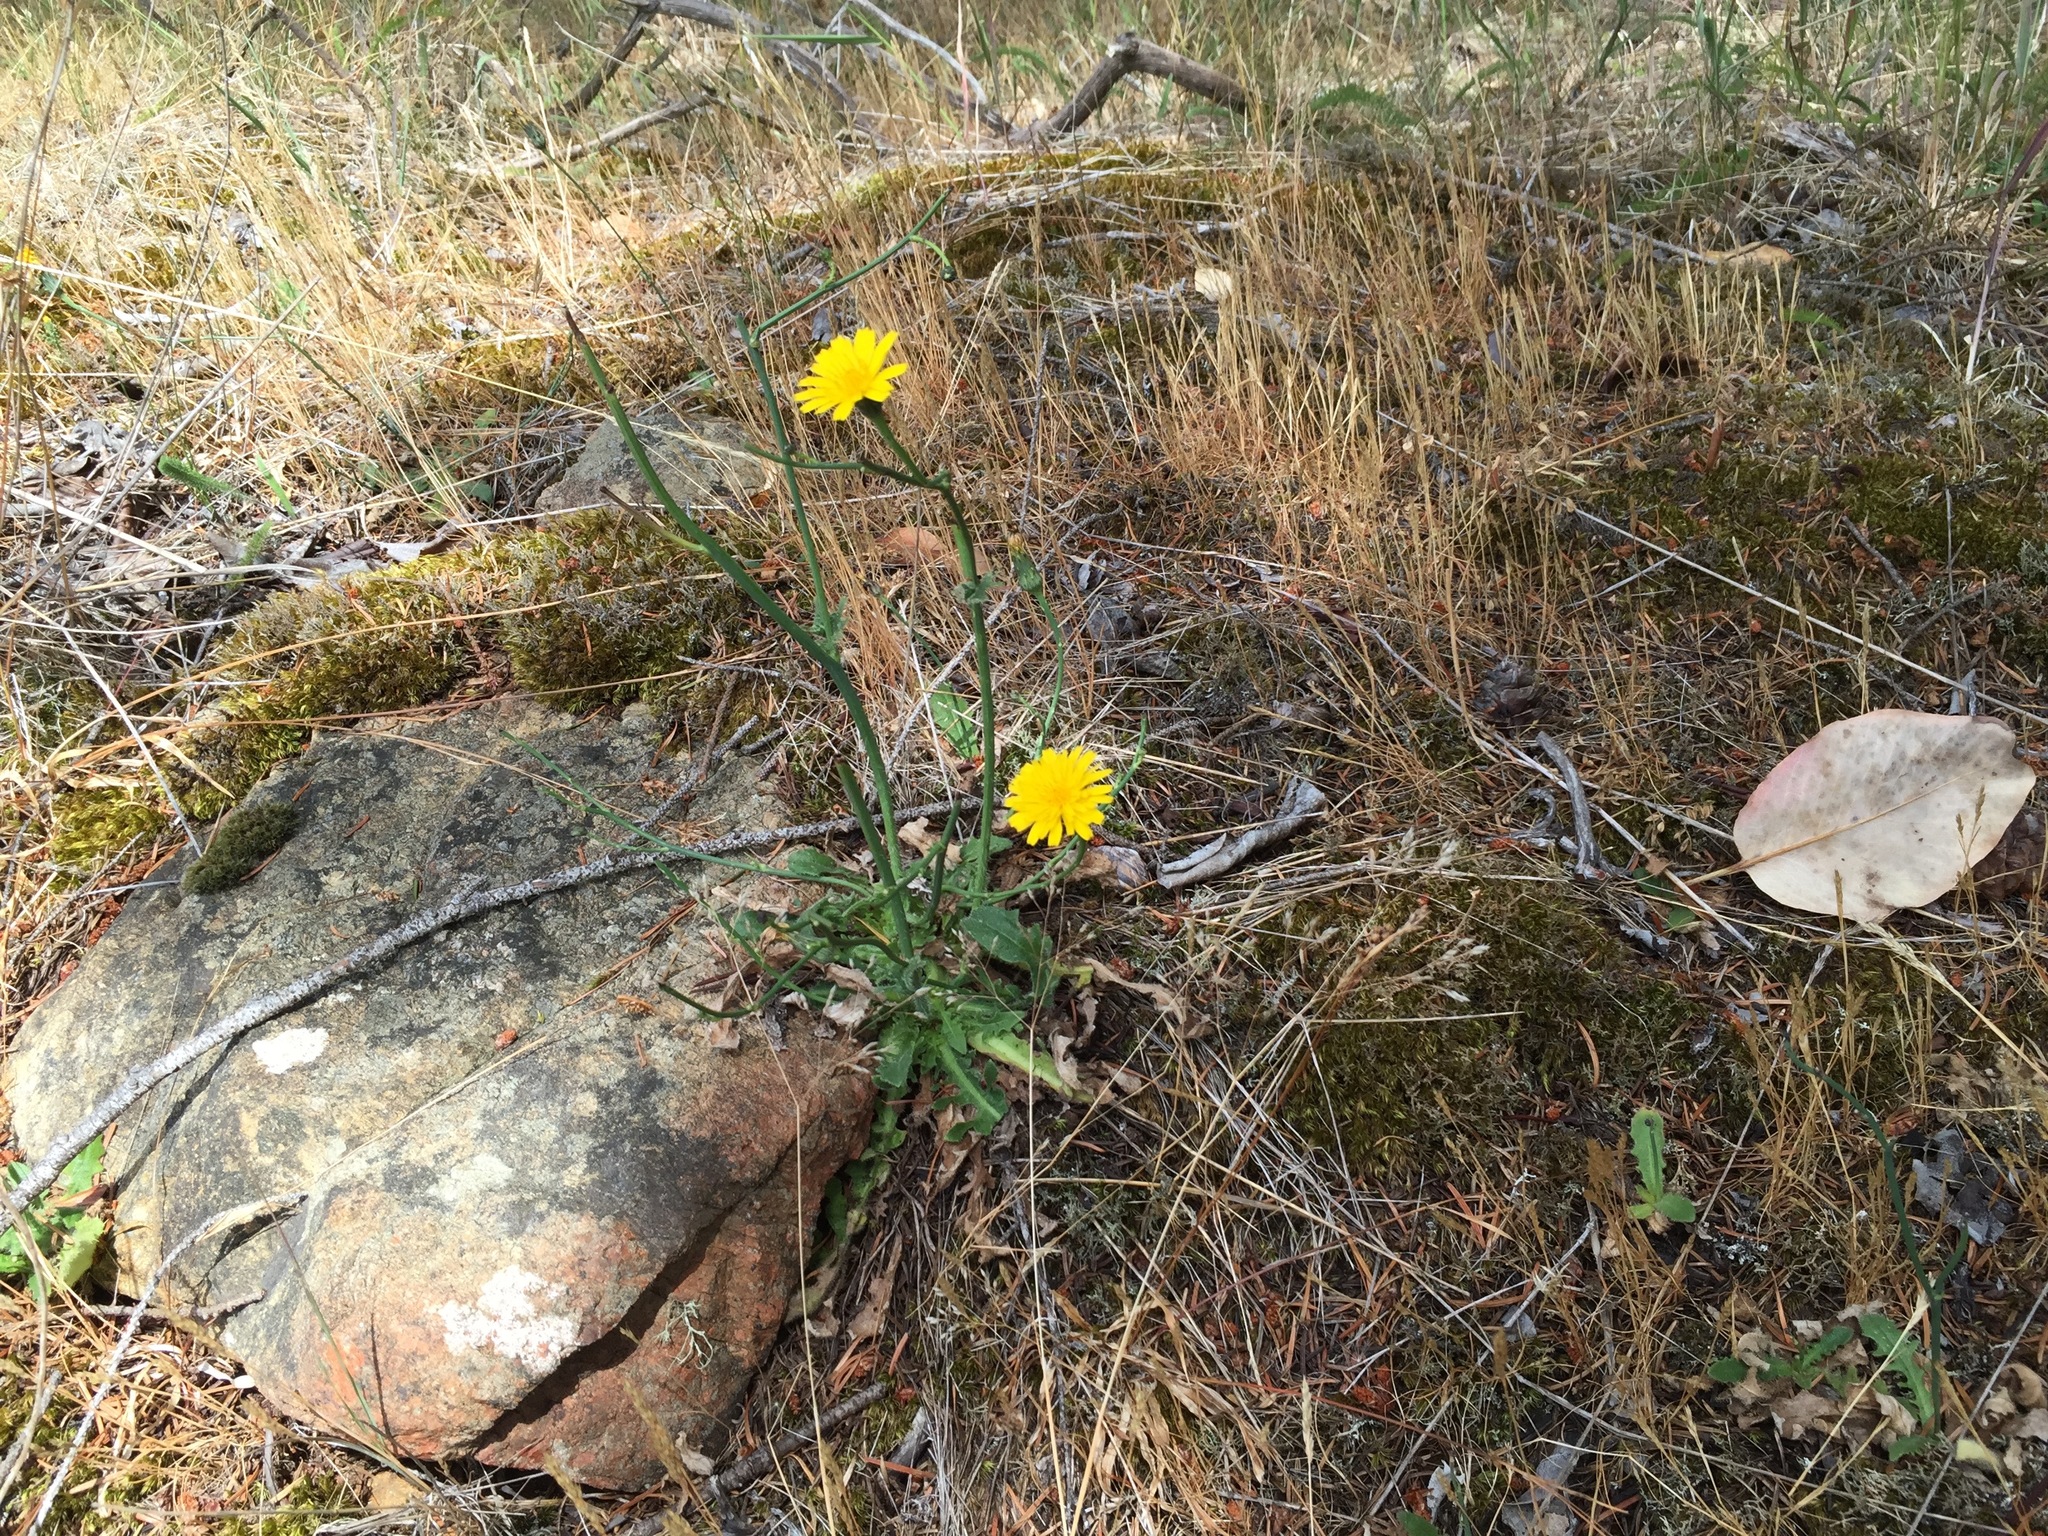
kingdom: Plantae
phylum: Tracheophyta
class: Magnoliopsida
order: Asterales
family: Asteraceae
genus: Hypochaeris
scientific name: Hypochaeris radicata
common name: Flatweed
